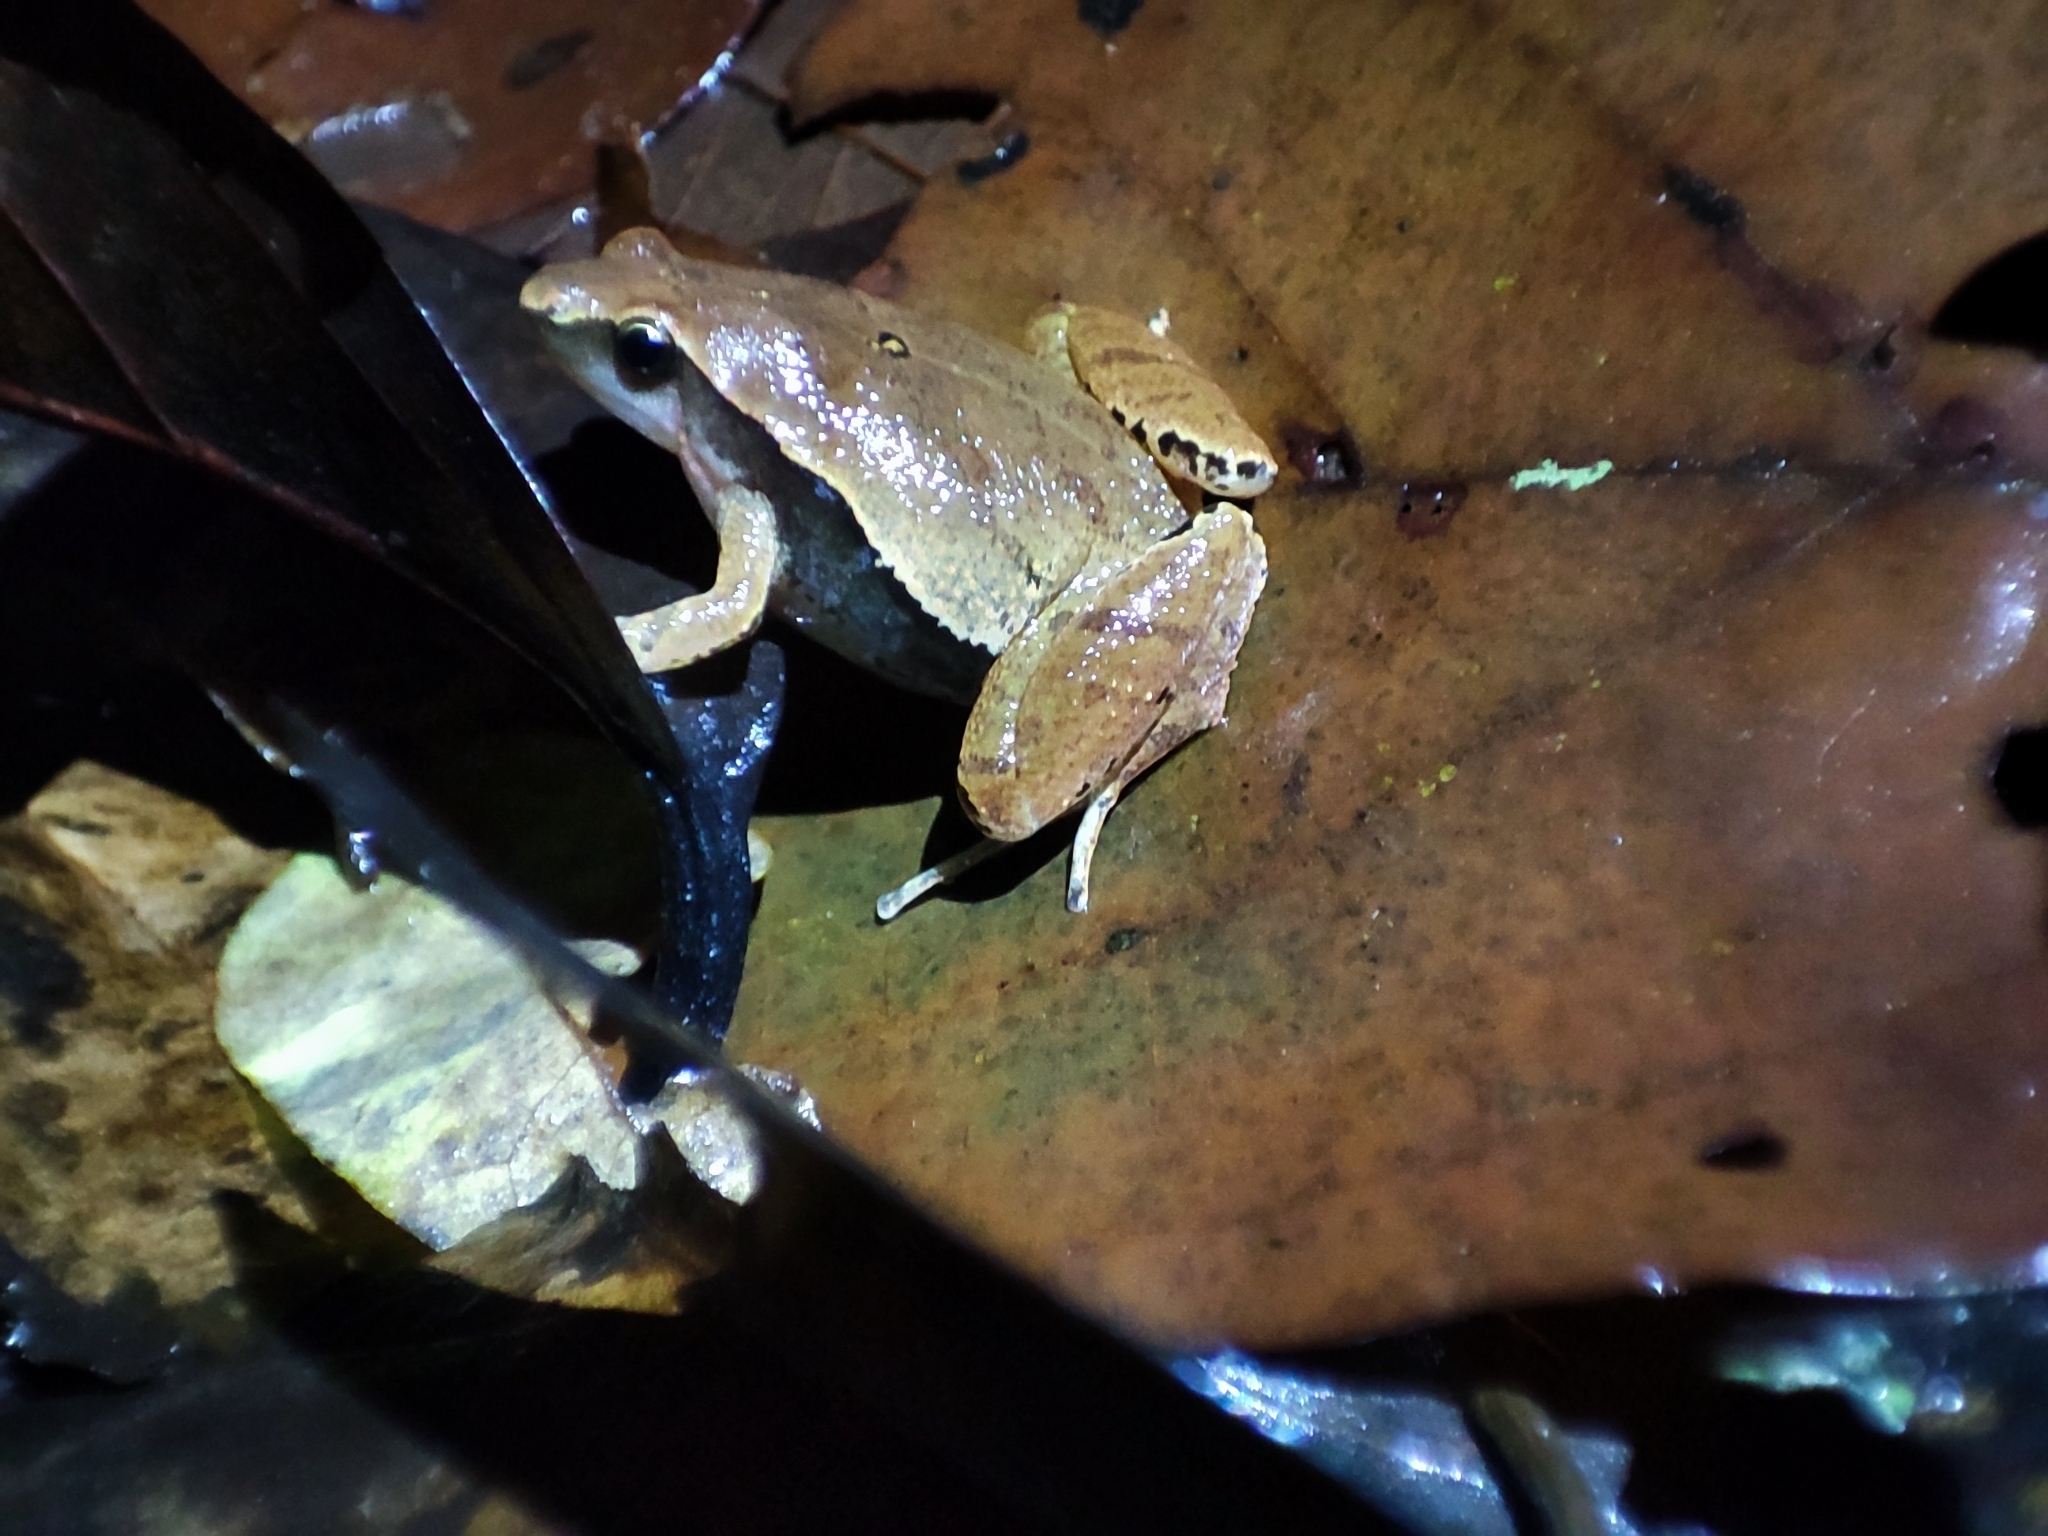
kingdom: Animalia
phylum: Chordata
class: Amphibia
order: Anura
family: Microhylidae
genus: Microhyla
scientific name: Microhyla heymonsi
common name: Taiwan rice frog,dark sided chorus frog
